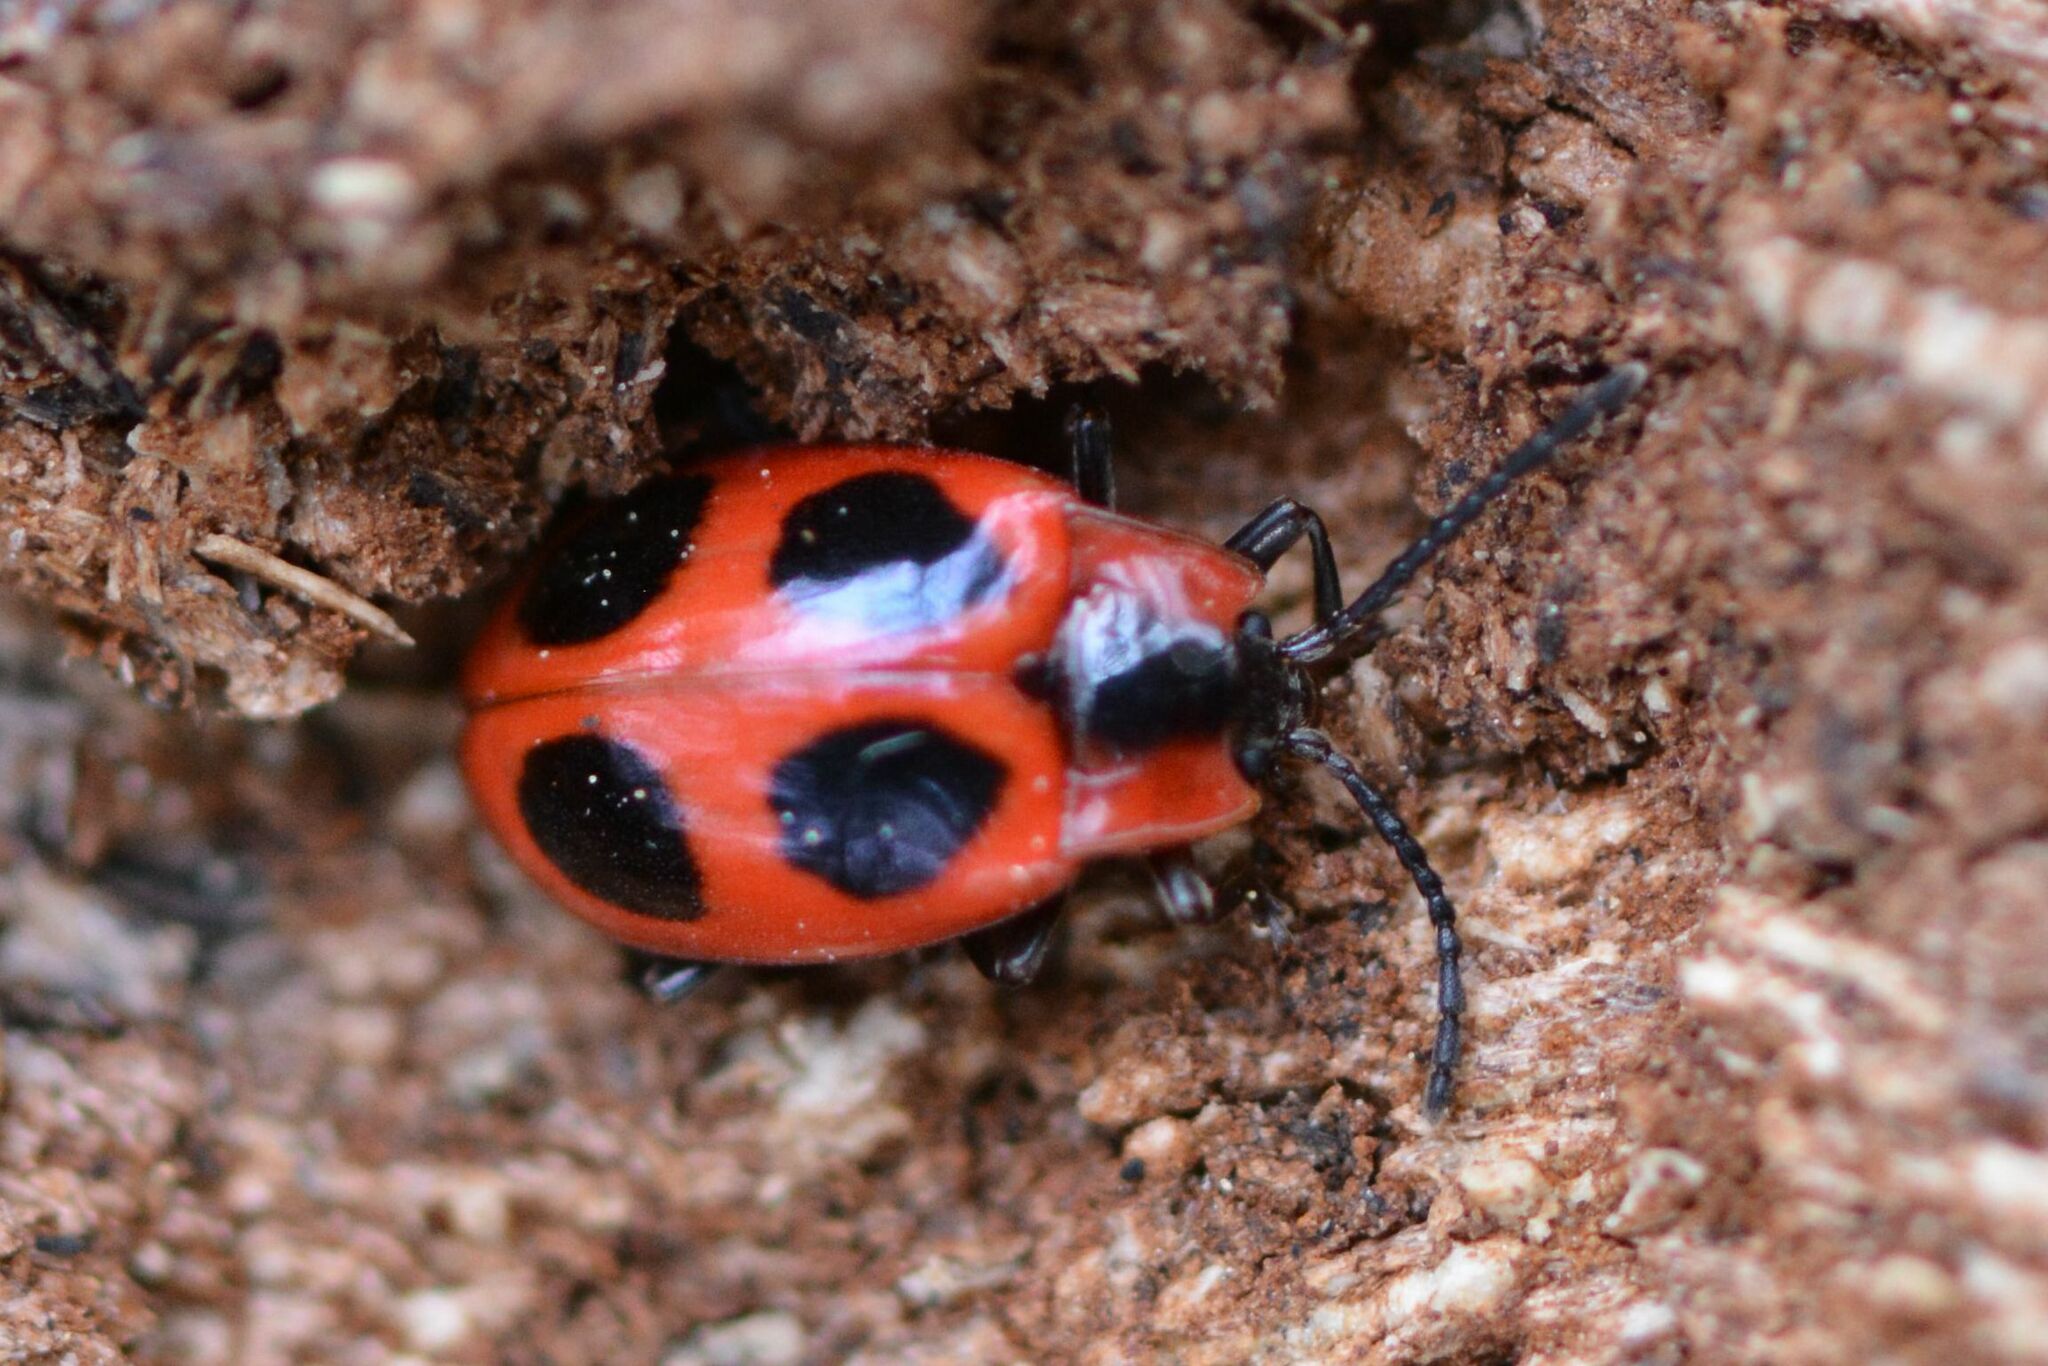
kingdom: Animalia
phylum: Arthropoda
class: Insecta
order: Coleoptera
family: Endomychidae
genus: Endomychus
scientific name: Endomychus coccineus
